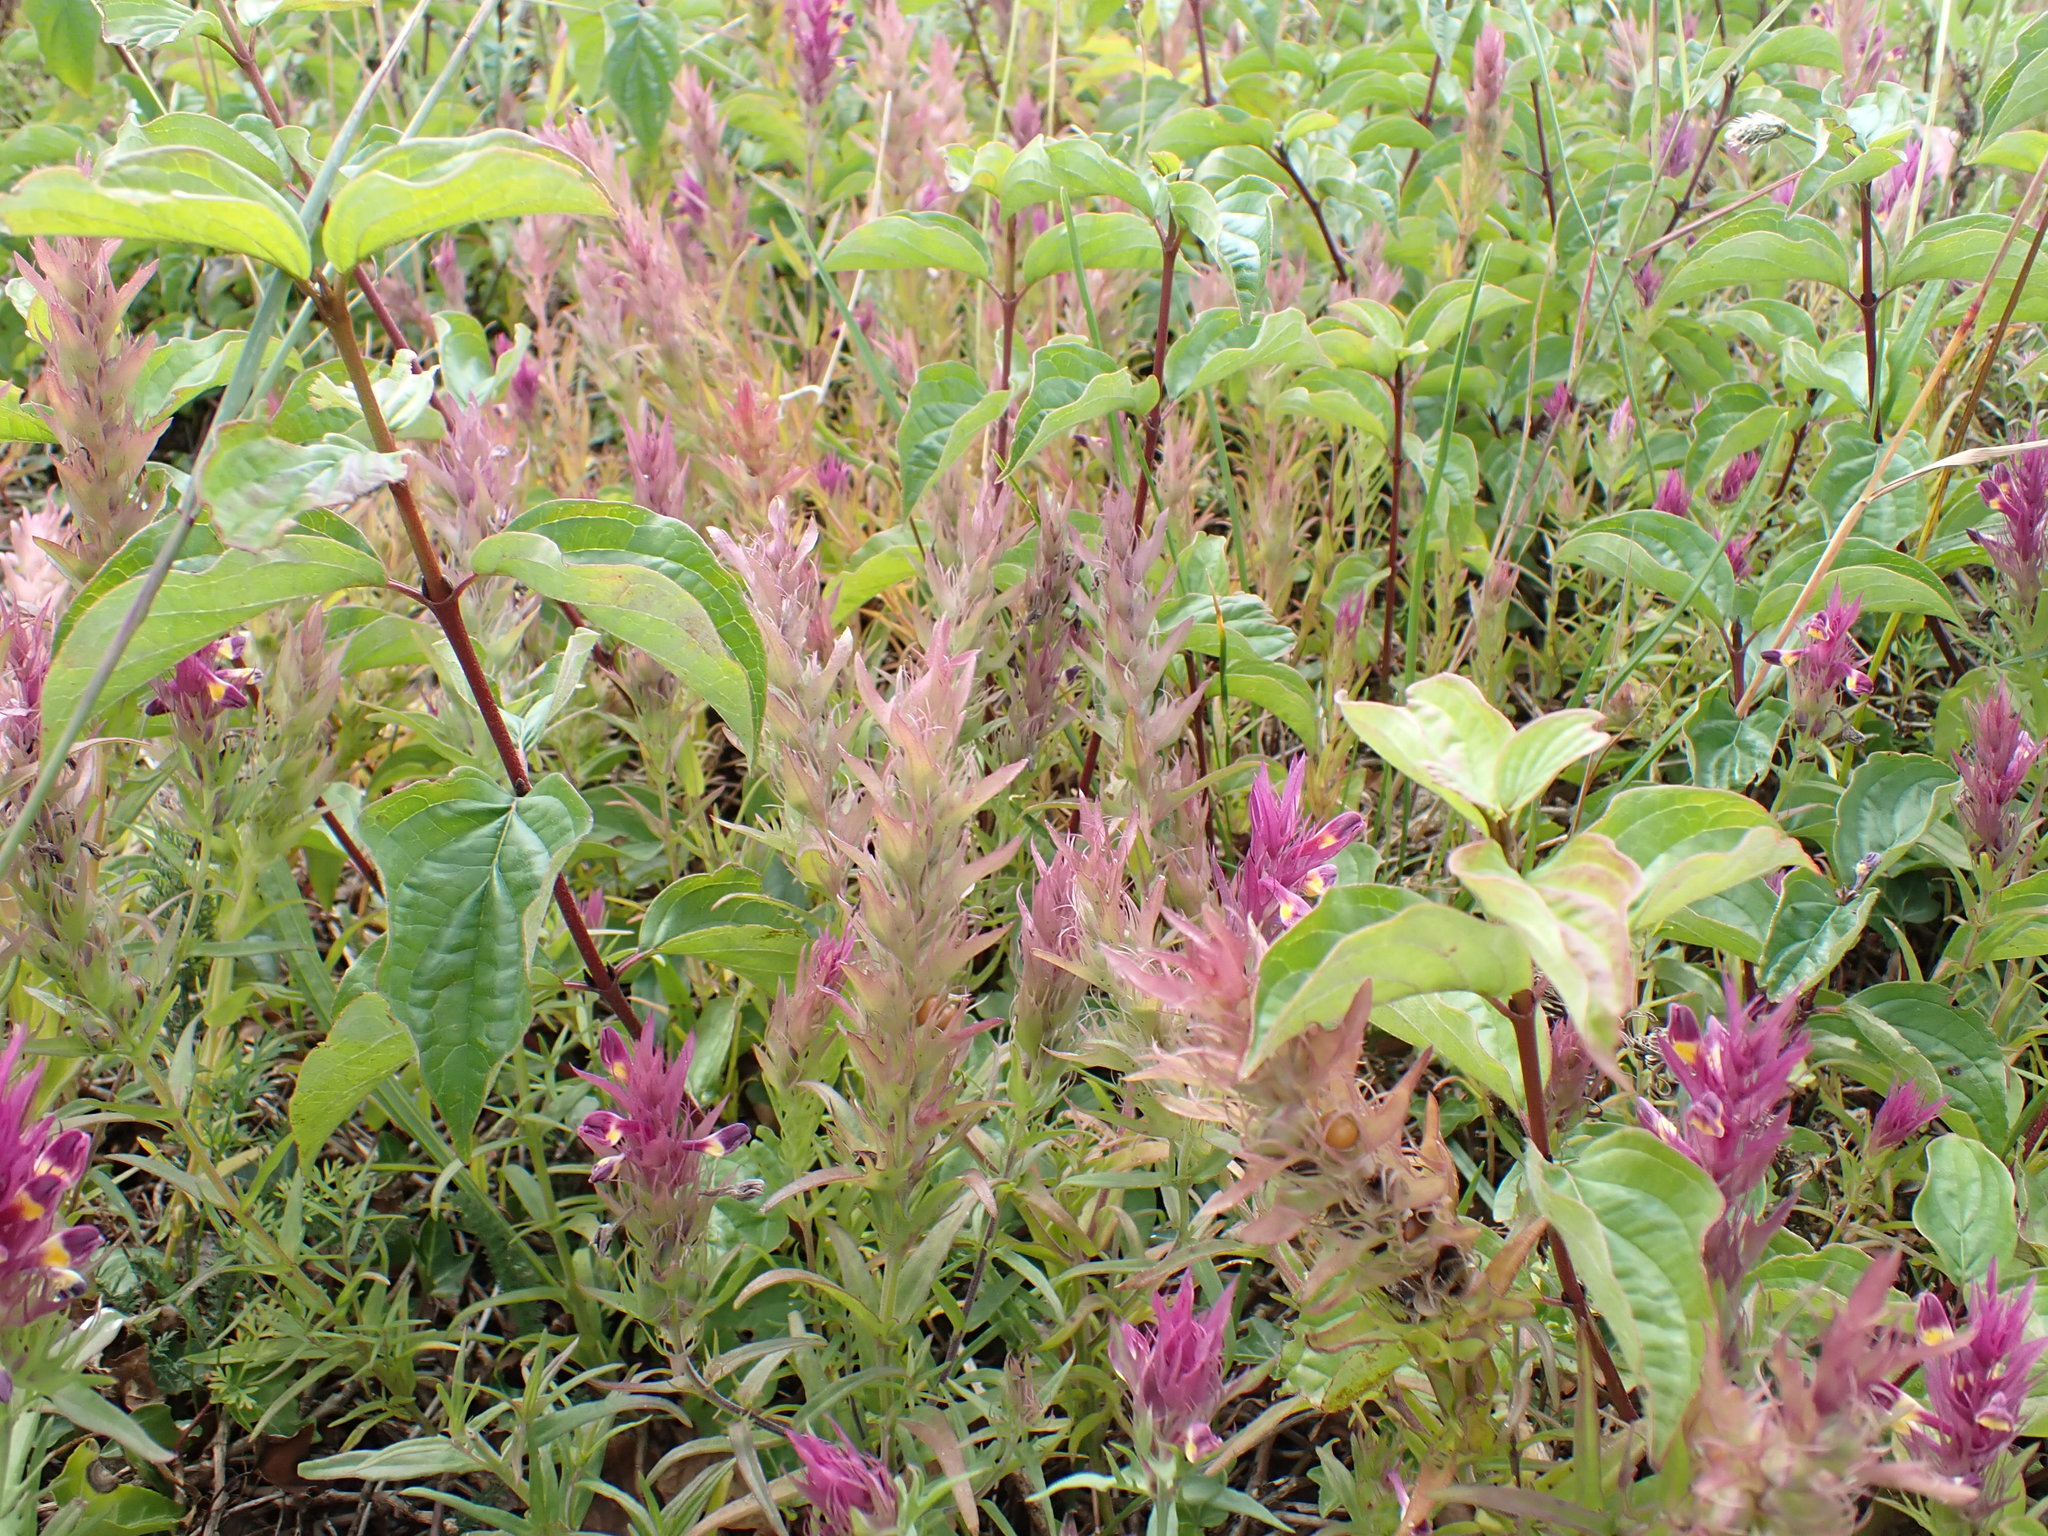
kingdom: Plantae
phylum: Tracheophyta
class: Magnoliopsida
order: Lamiales
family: Orobanchaceae
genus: Melampyrum
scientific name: Melampyrum arvense
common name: Field cow-wheat
